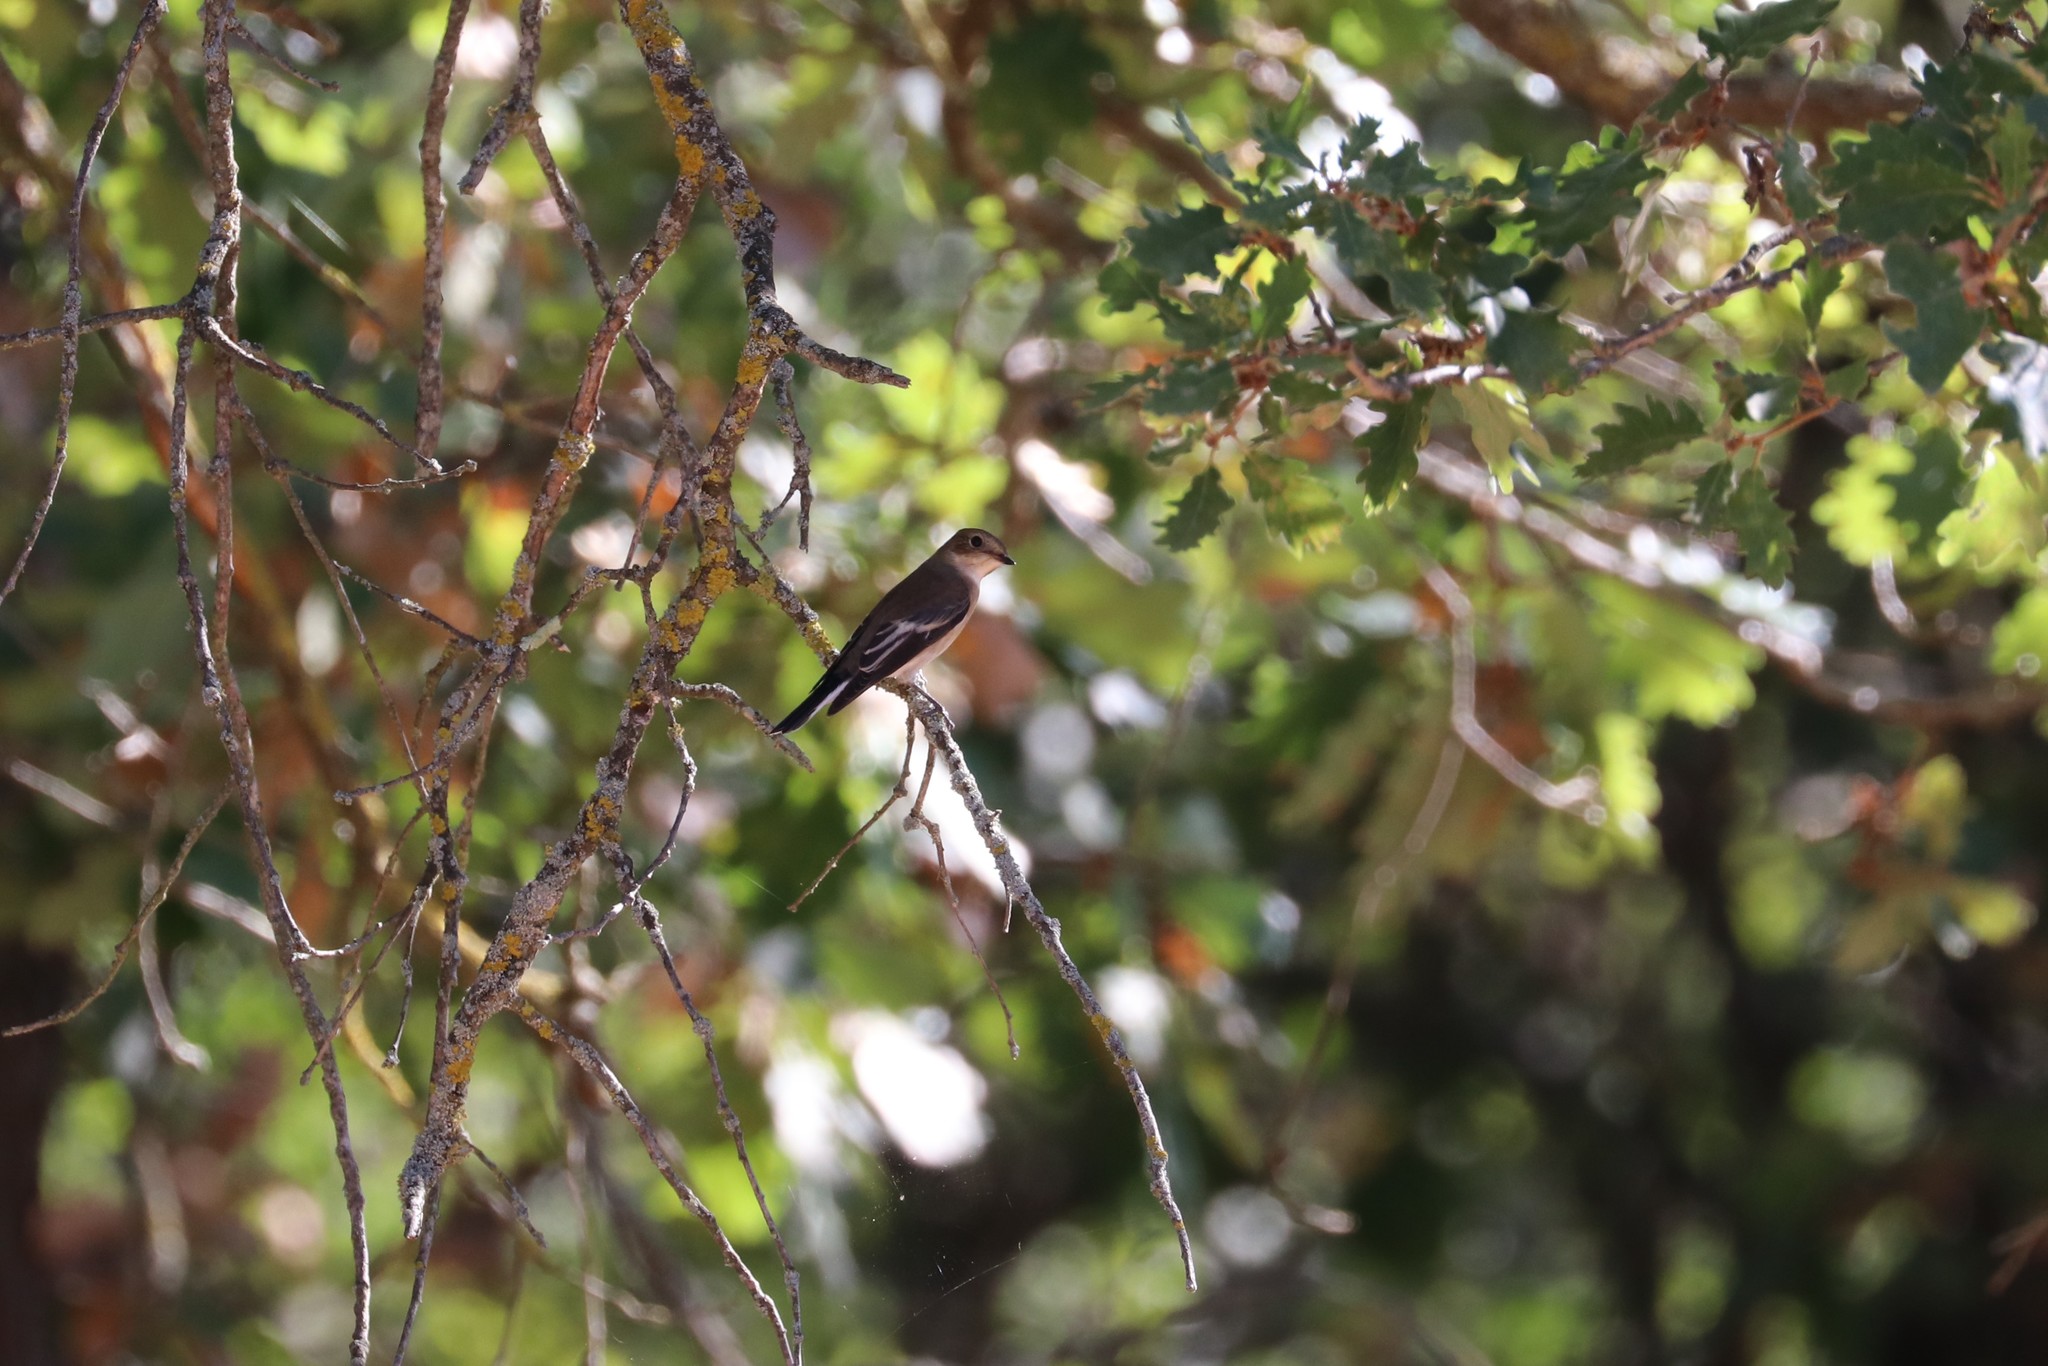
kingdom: Animalia
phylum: Chordata
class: Aves
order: Passeriformes
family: Muscicapidae
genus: Ficedula
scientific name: Ficedula hypoleuca
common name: European pied flycatcher
